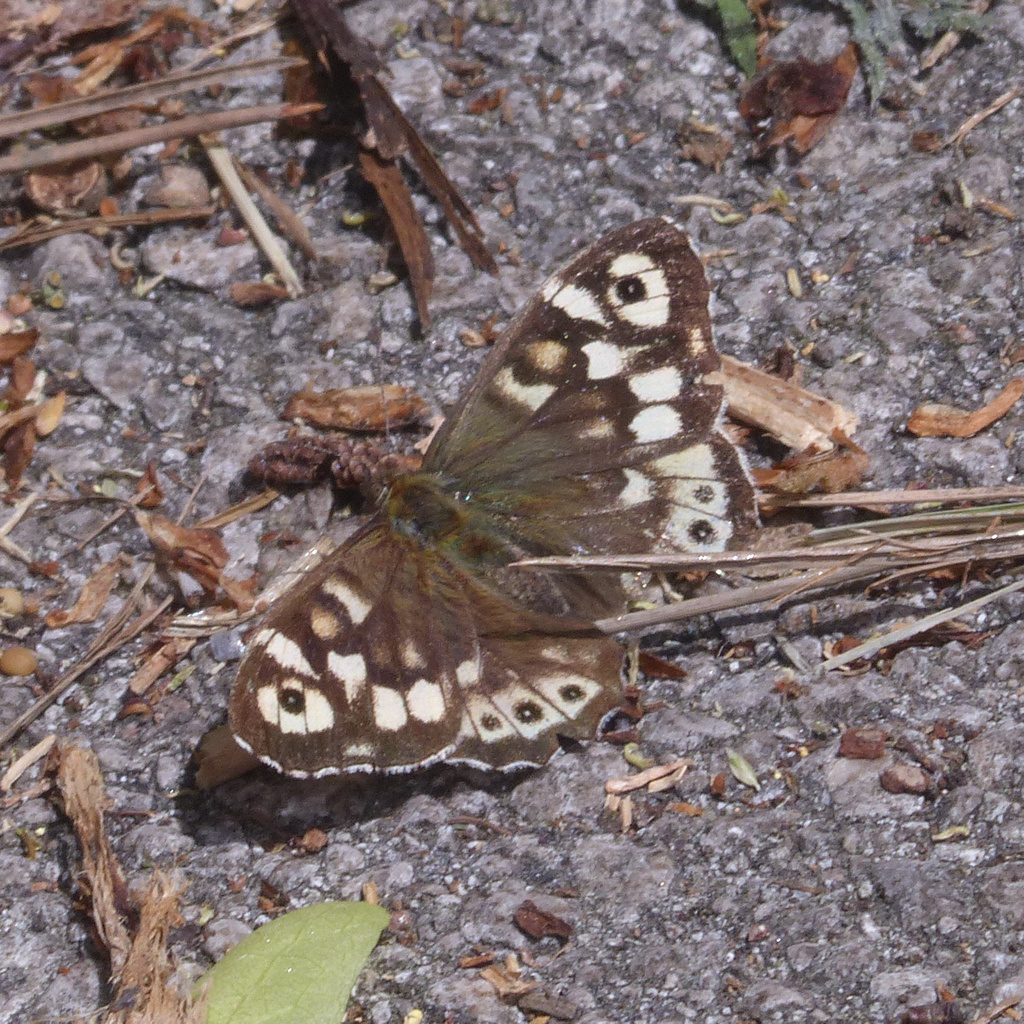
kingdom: Animalia
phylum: Arthropoda
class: Insecta
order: Lepidoptera
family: Nymphalidae
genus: Pararge
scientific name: Pararge aegeria
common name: Speckled wood
